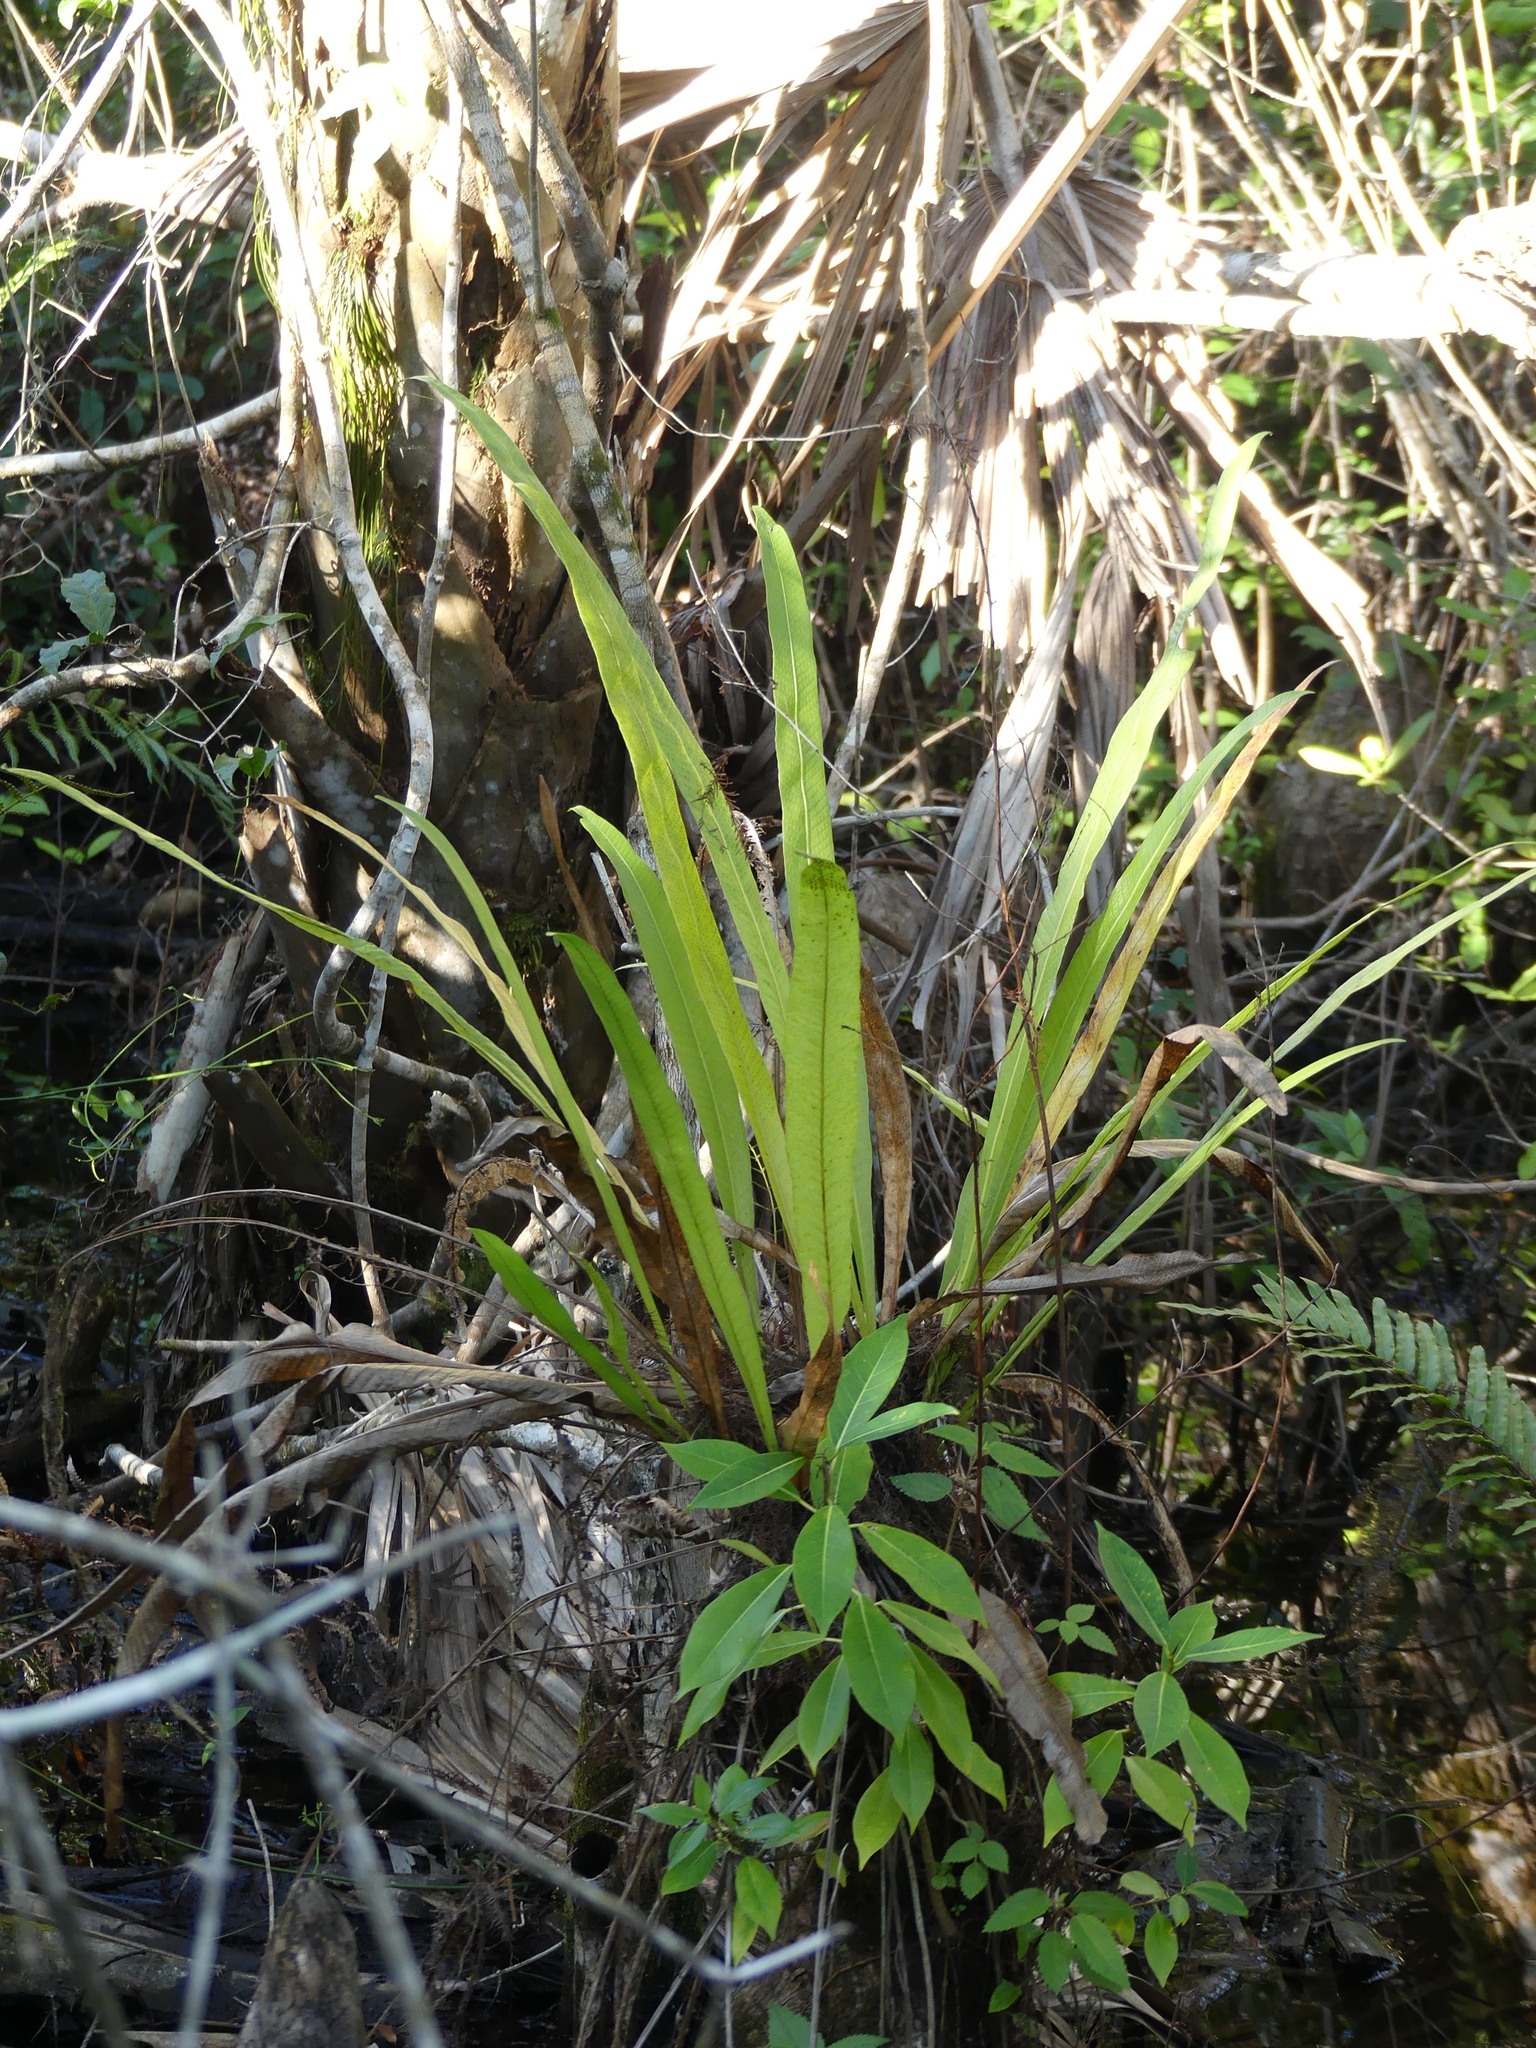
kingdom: Plantae
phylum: Tracheophyta
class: Polypodiopsida
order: Polypodiales
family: Polypodiaceae
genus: Campyloneurum
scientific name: Campyloneurum phyllitidis
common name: Cow-tongue fern
